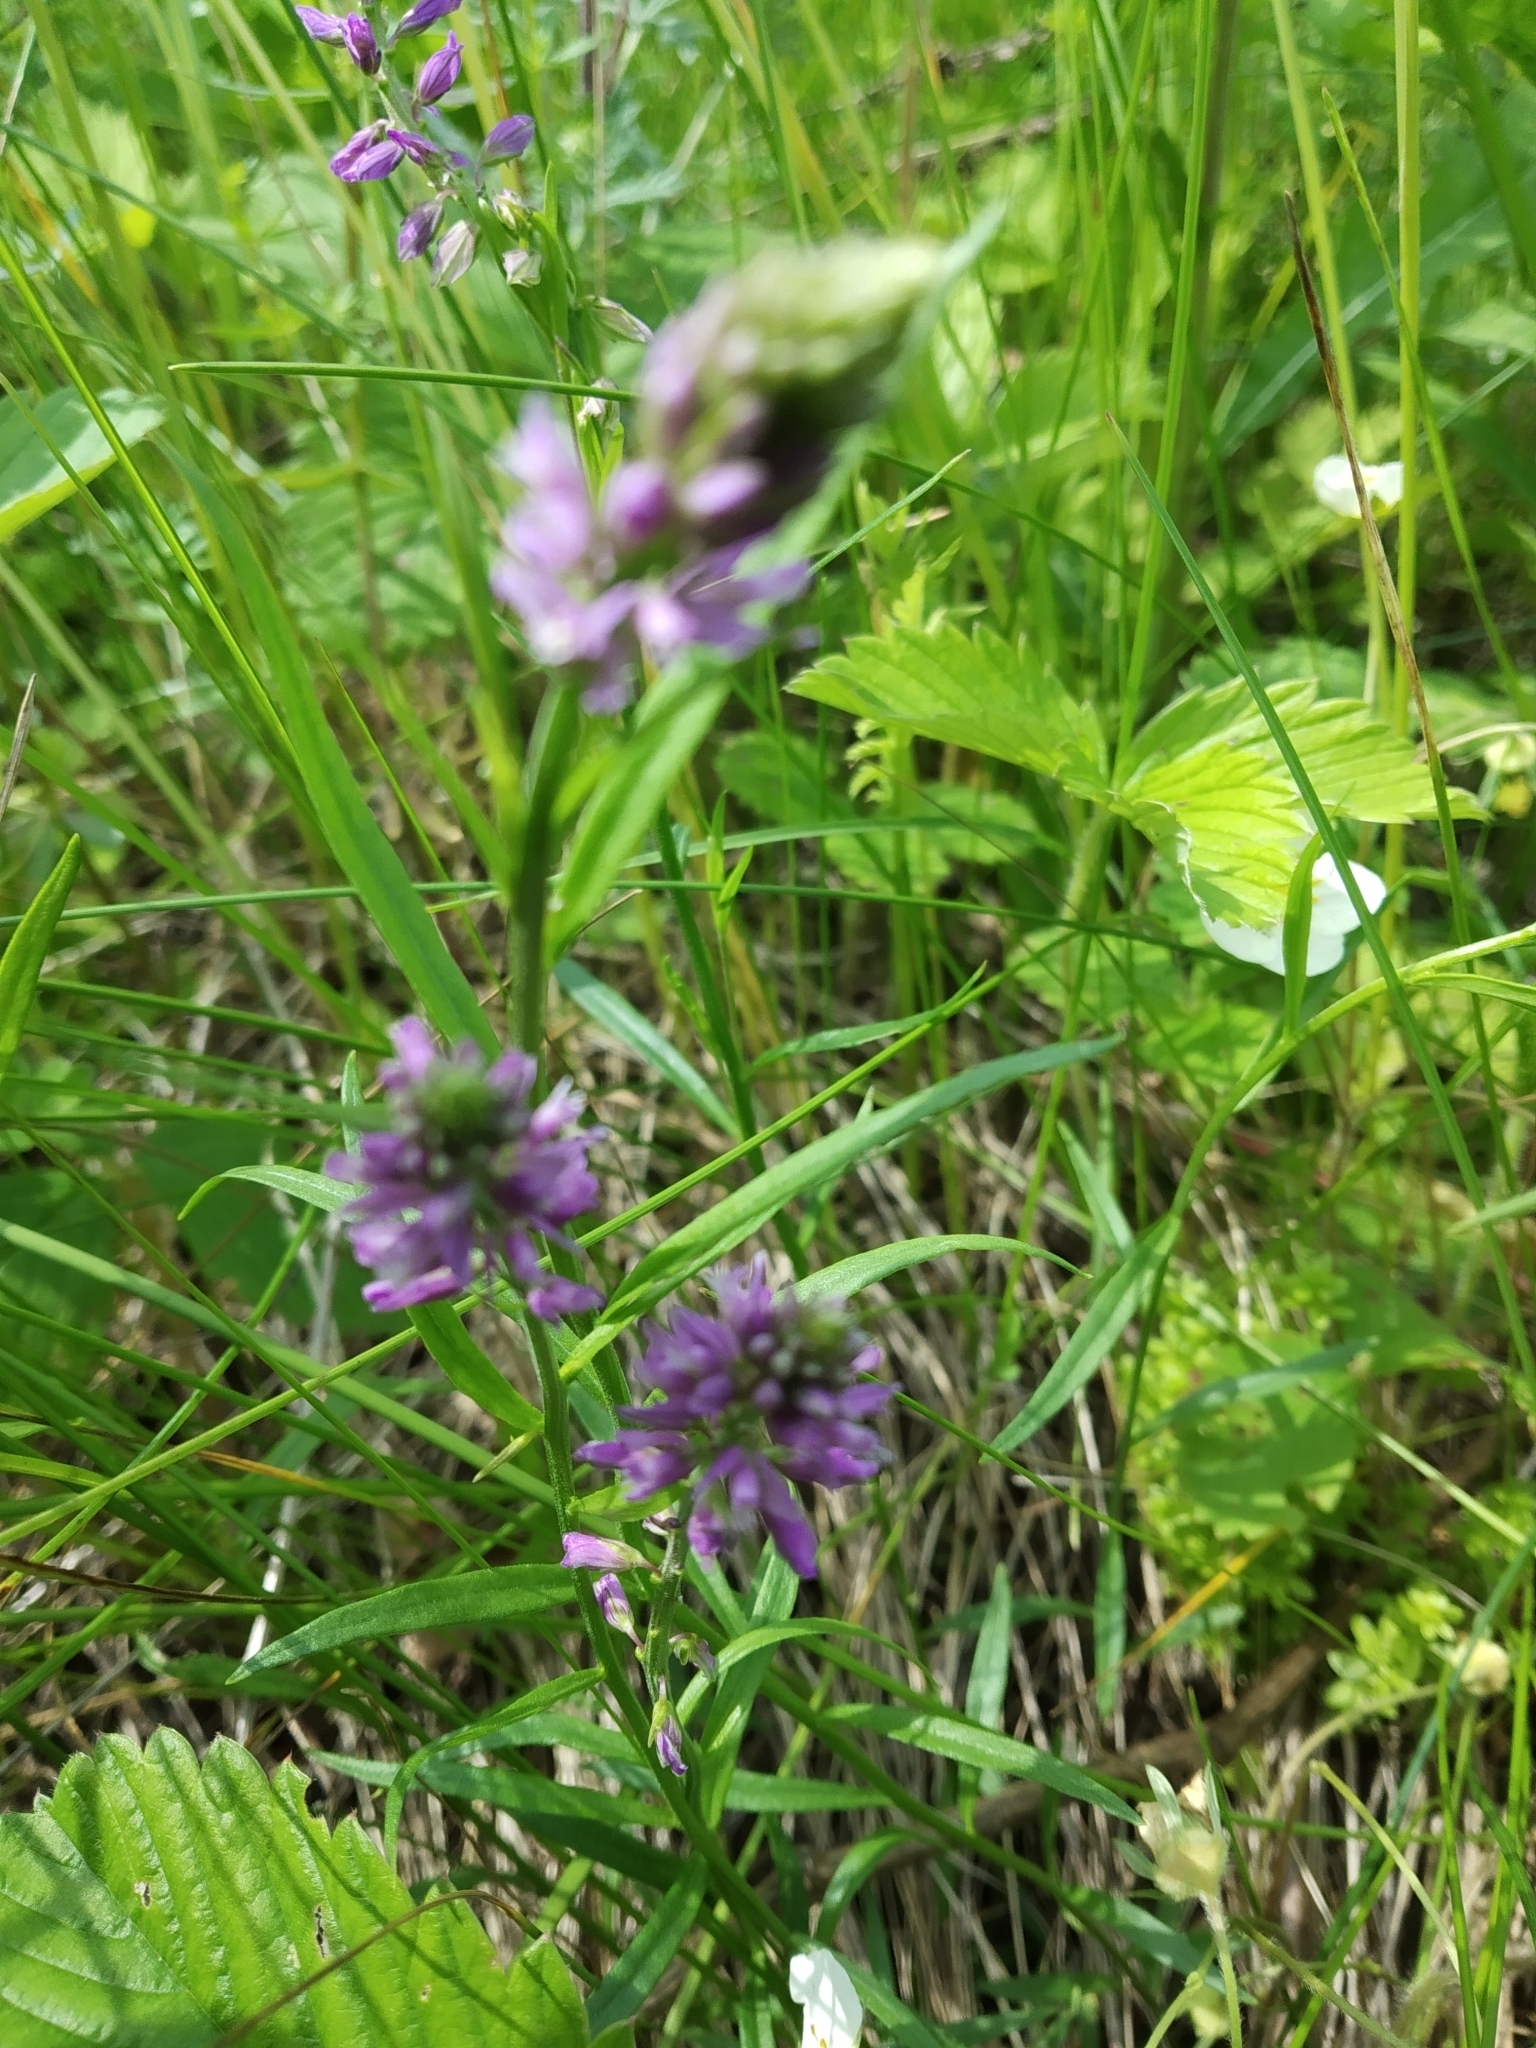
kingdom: Plantae
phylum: Tracheophyta
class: Magnoliopsida
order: Fabales
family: Polygalaceae
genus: Polygala
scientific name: Polygala comosa
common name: Tufted milkwort
